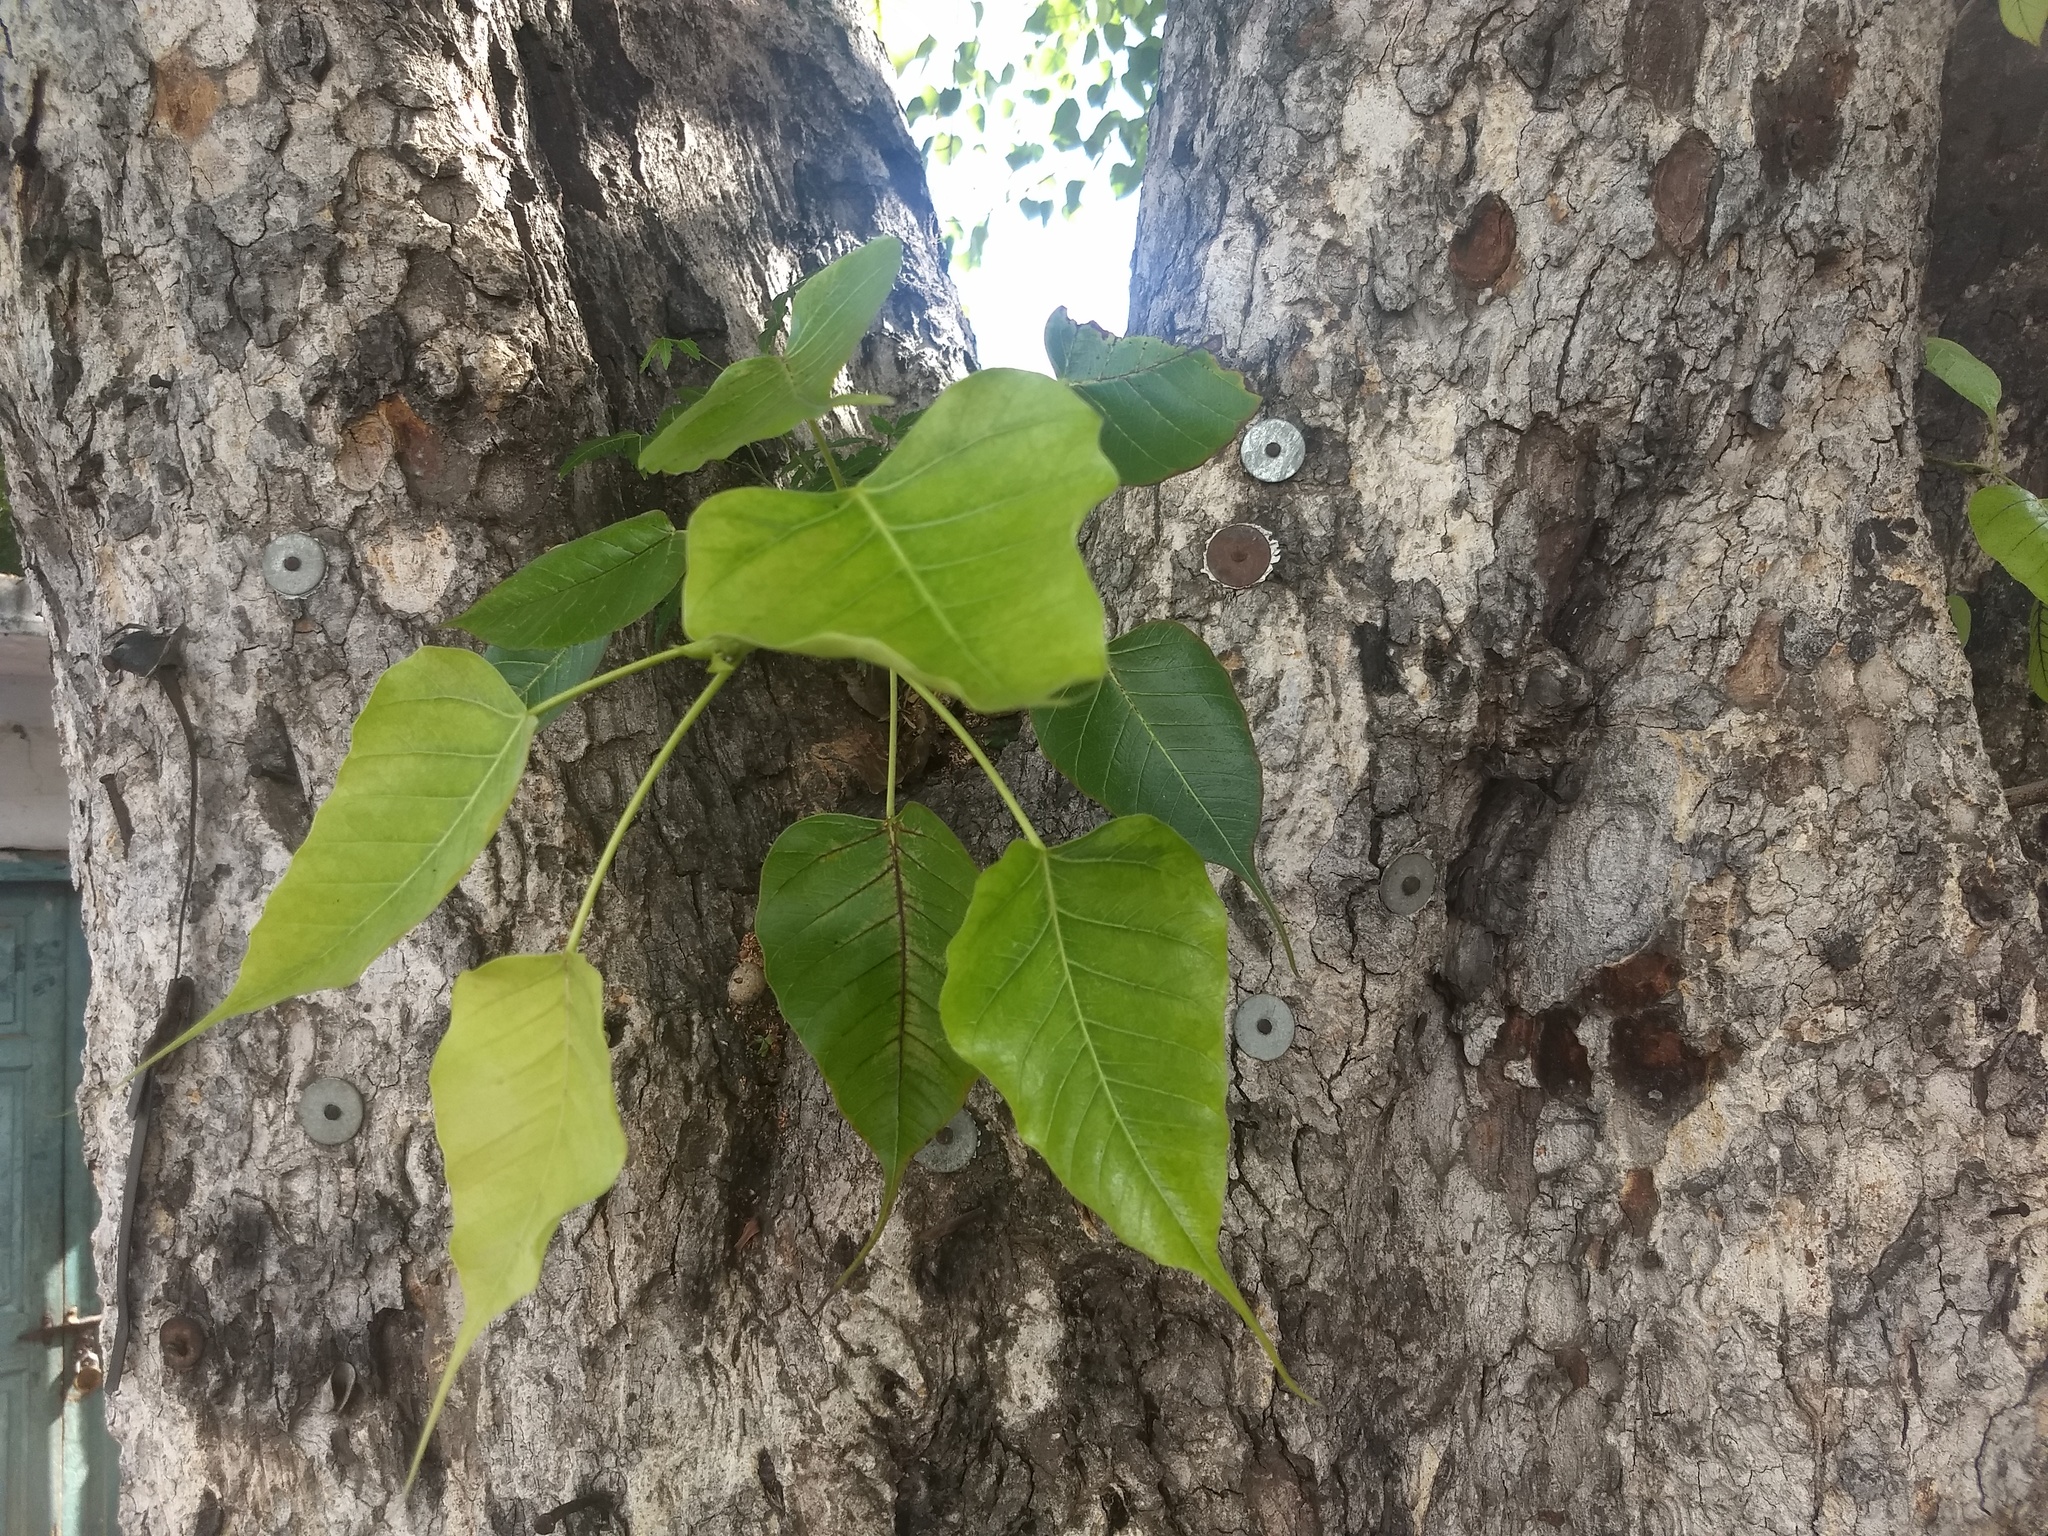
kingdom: Plantae
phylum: Tracheophyta
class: Magnoliopsida
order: Rosales
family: Moraceae
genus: Ficus
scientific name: Ficus religiosa
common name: Bodhi tree
